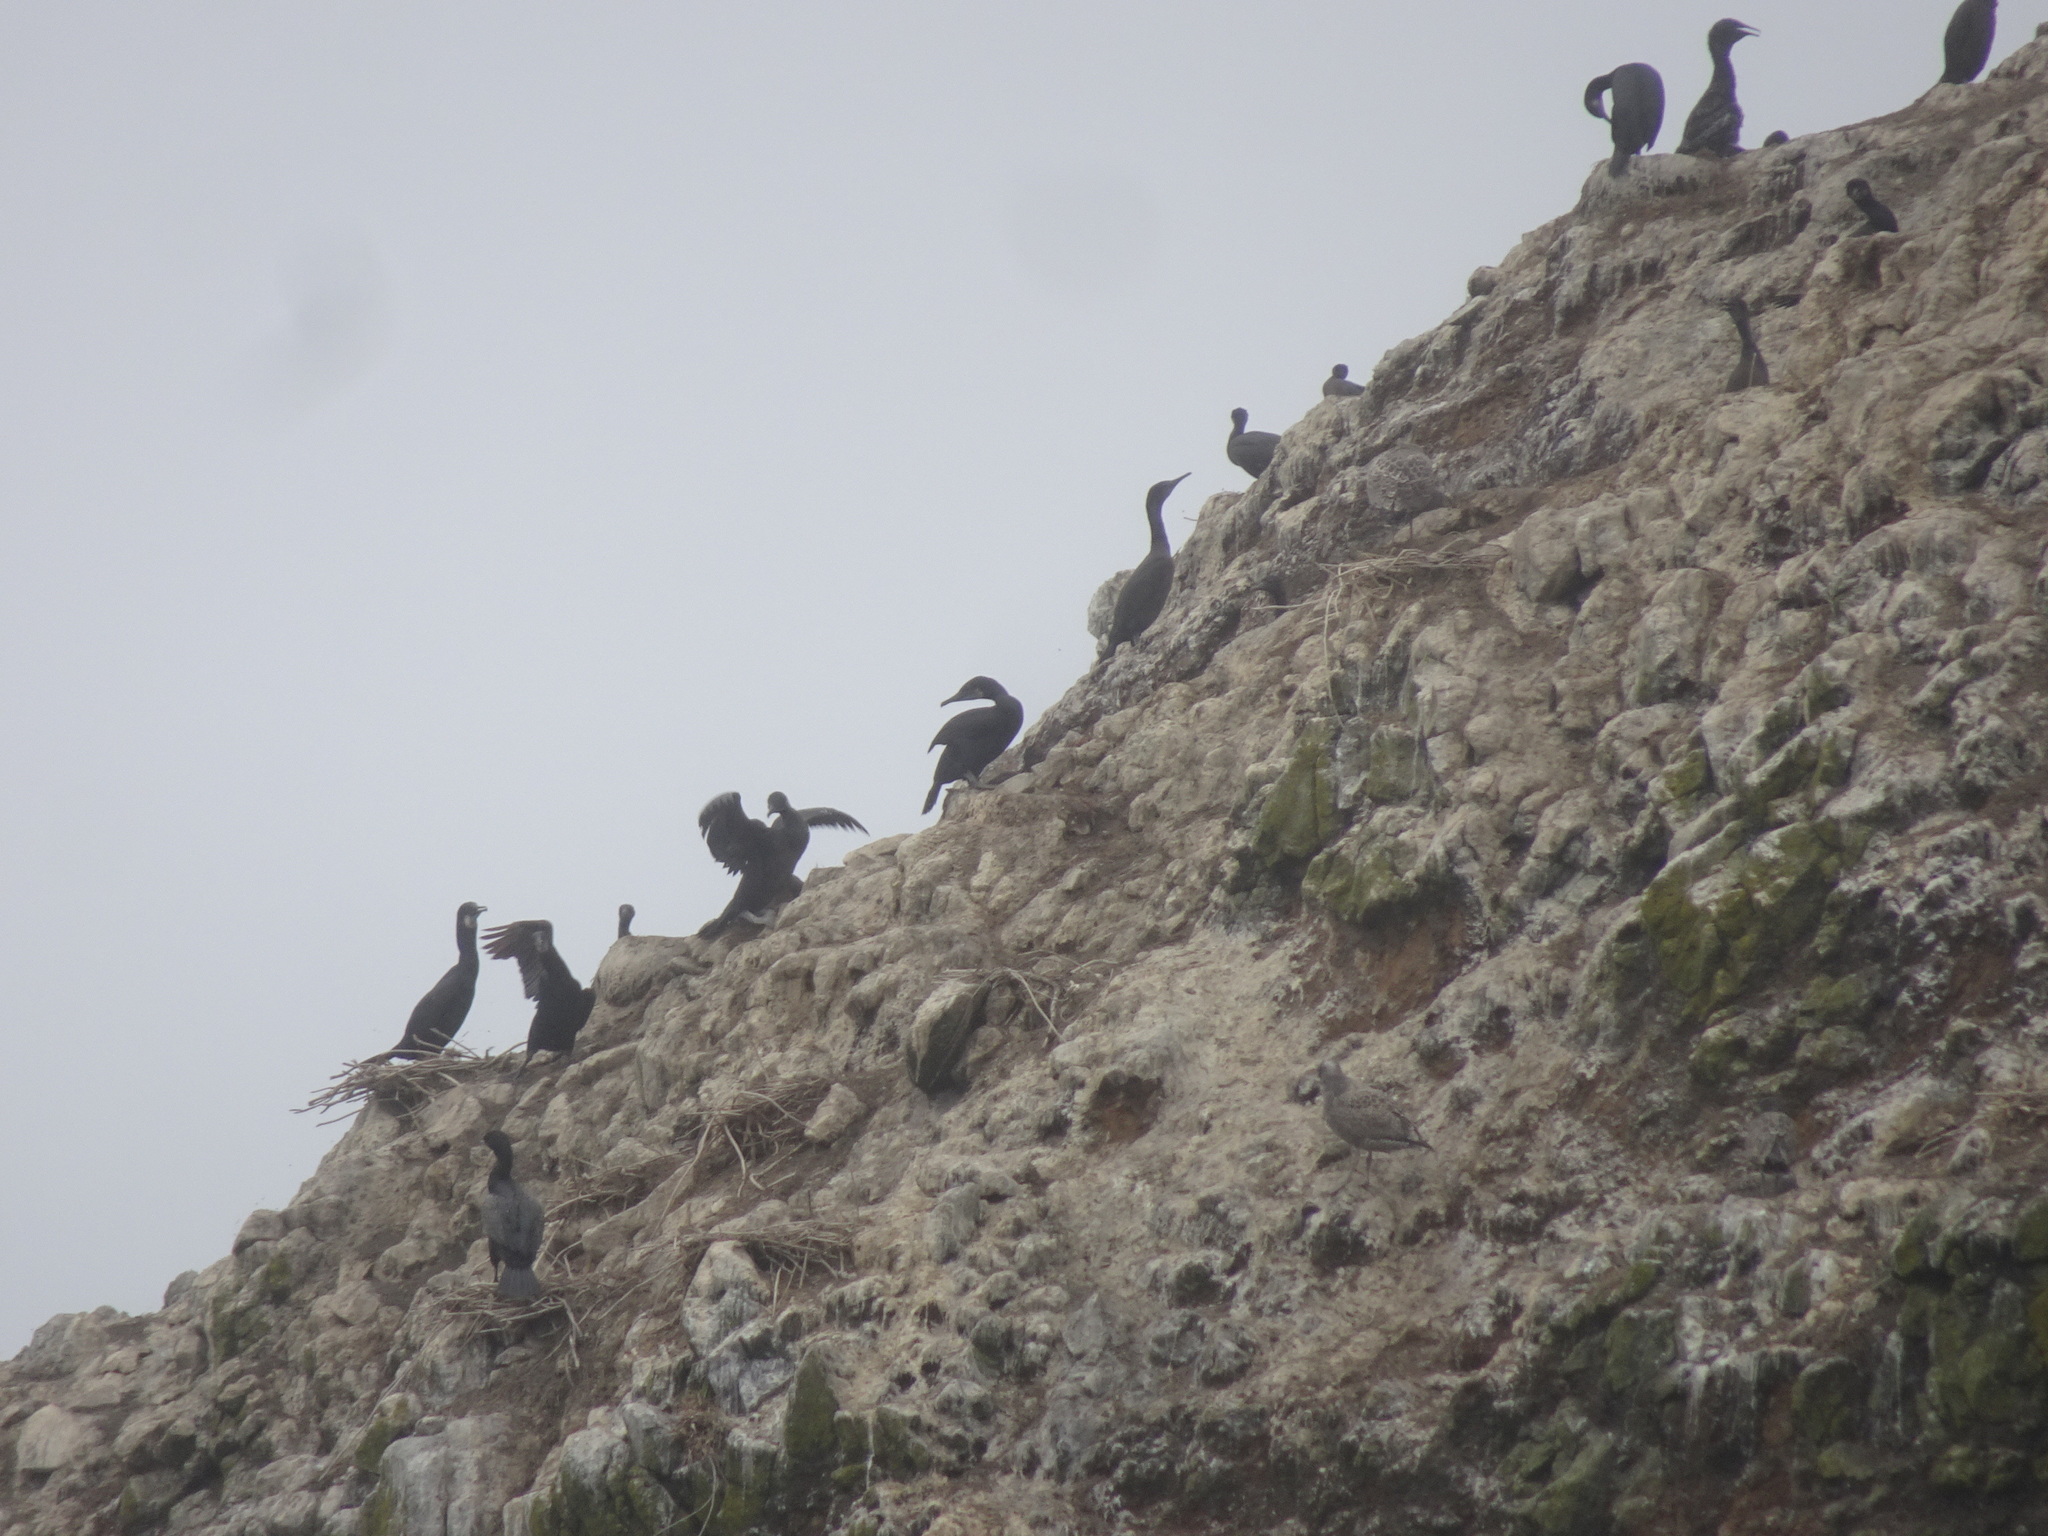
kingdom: Animalia
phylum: Chordata
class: Aves
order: Suliformes
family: Phalacrocoracidae
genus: Urile
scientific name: Urile penicillatus
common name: Brandt's cormorant
